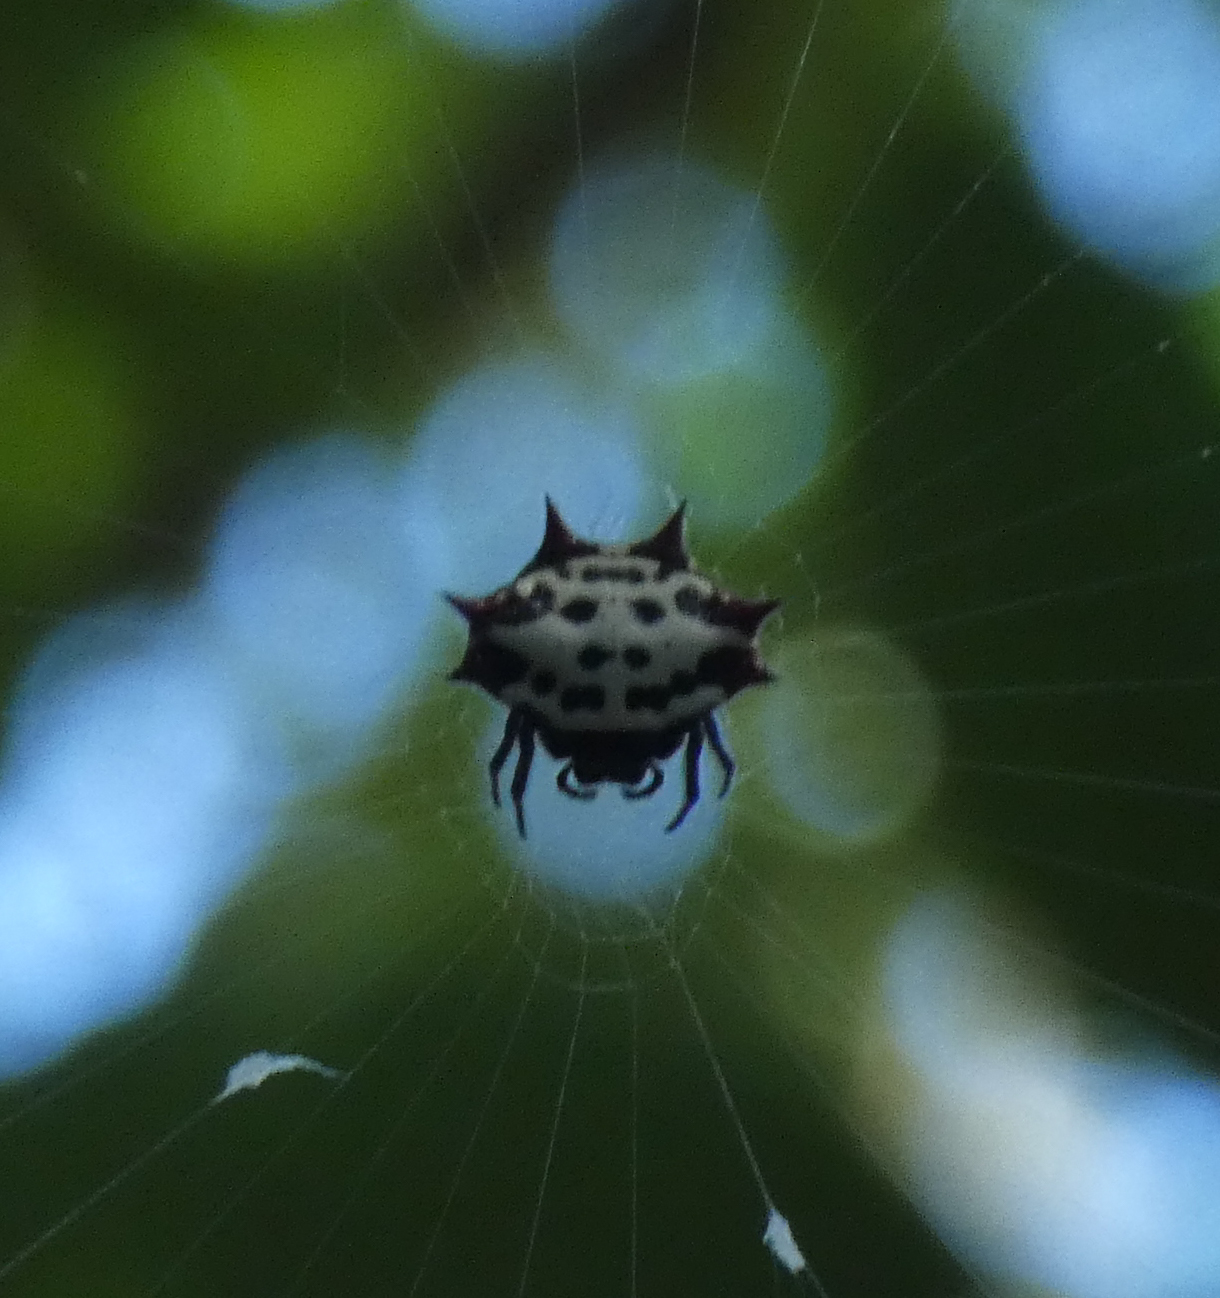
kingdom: Animalia
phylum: Arthropoda
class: Arachnida
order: Araneae
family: Araneidae
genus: Gasteracantha
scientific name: Gasteracantha cancriformis
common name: Orb weavers
